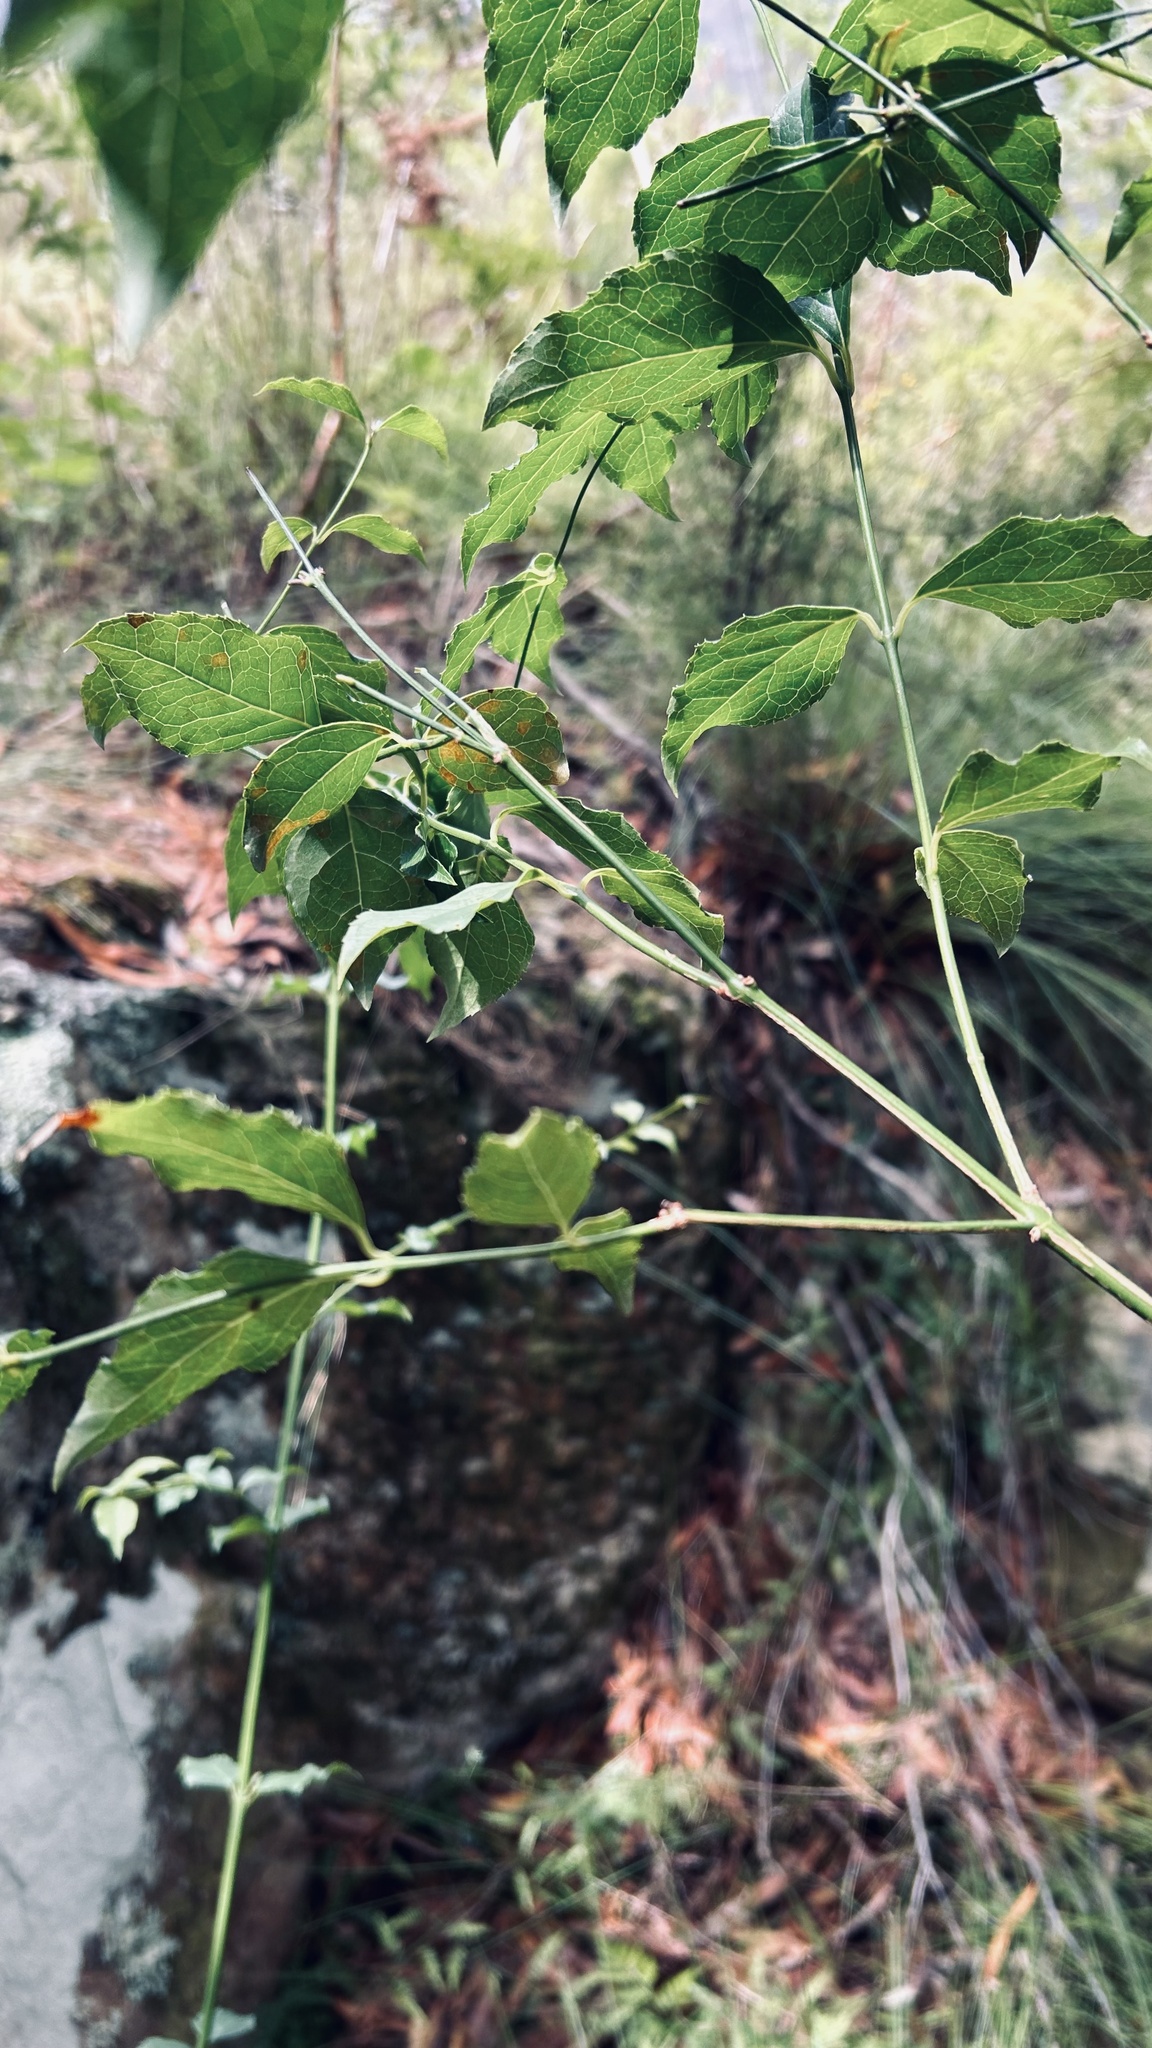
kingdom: Plantae
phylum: Tracheophyta
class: Magnoliopsida
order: Lamiales
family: Stilbaceae
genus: Halleria
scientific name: Halleria lucida
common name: Tree fuschia
